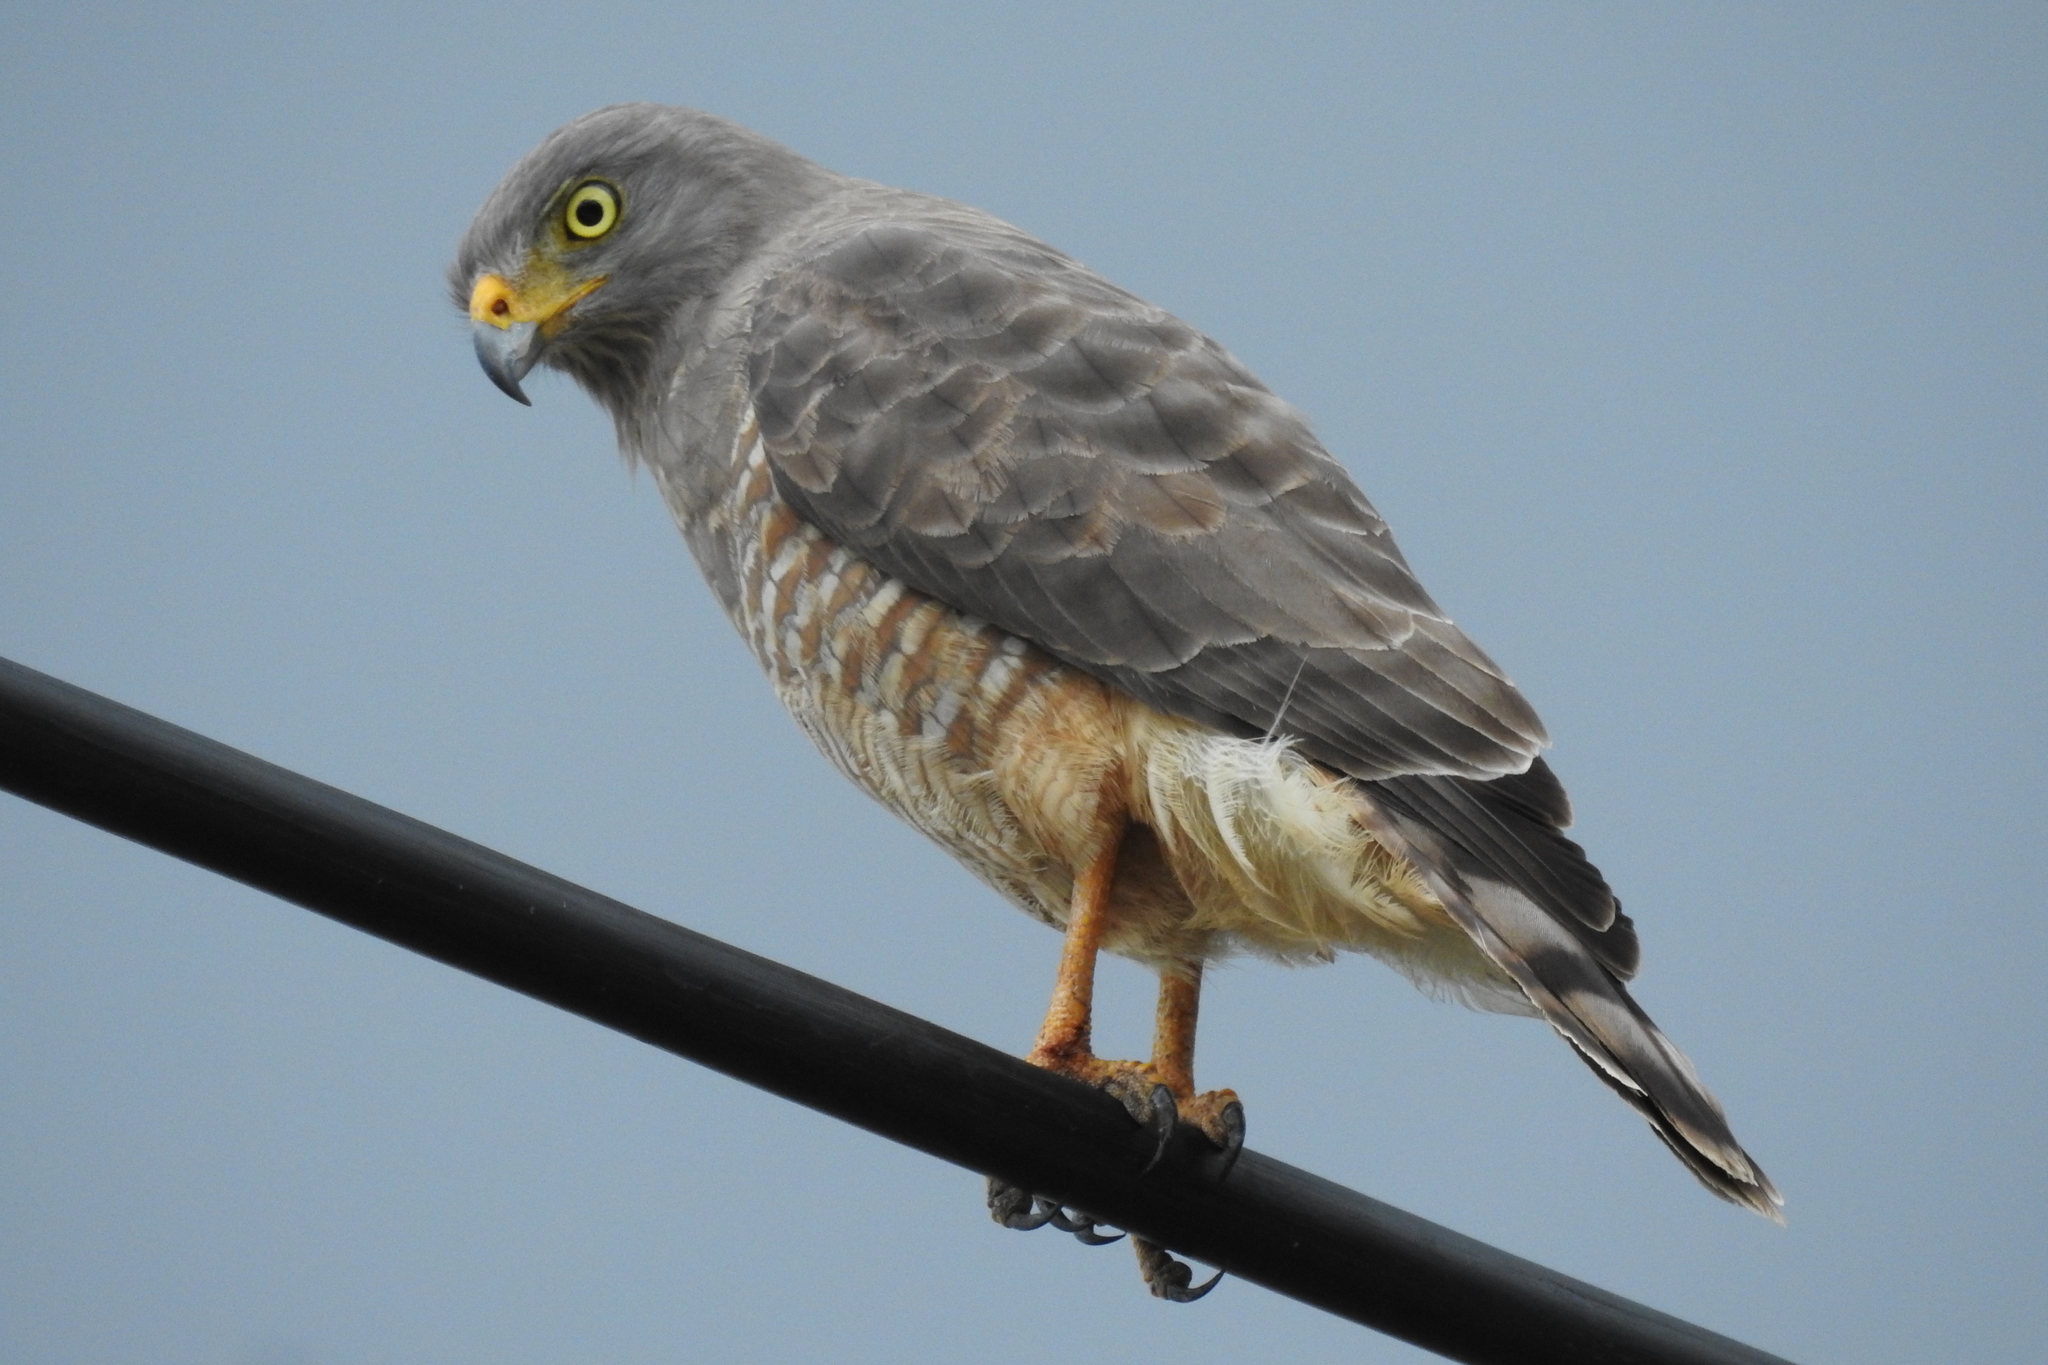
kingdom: Animalia
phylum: Chordata
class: Aves
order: Accipitriformes
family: Accipitridae
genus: Rupornis
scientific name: Rupornis magnirostris
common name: Roadside hawk
